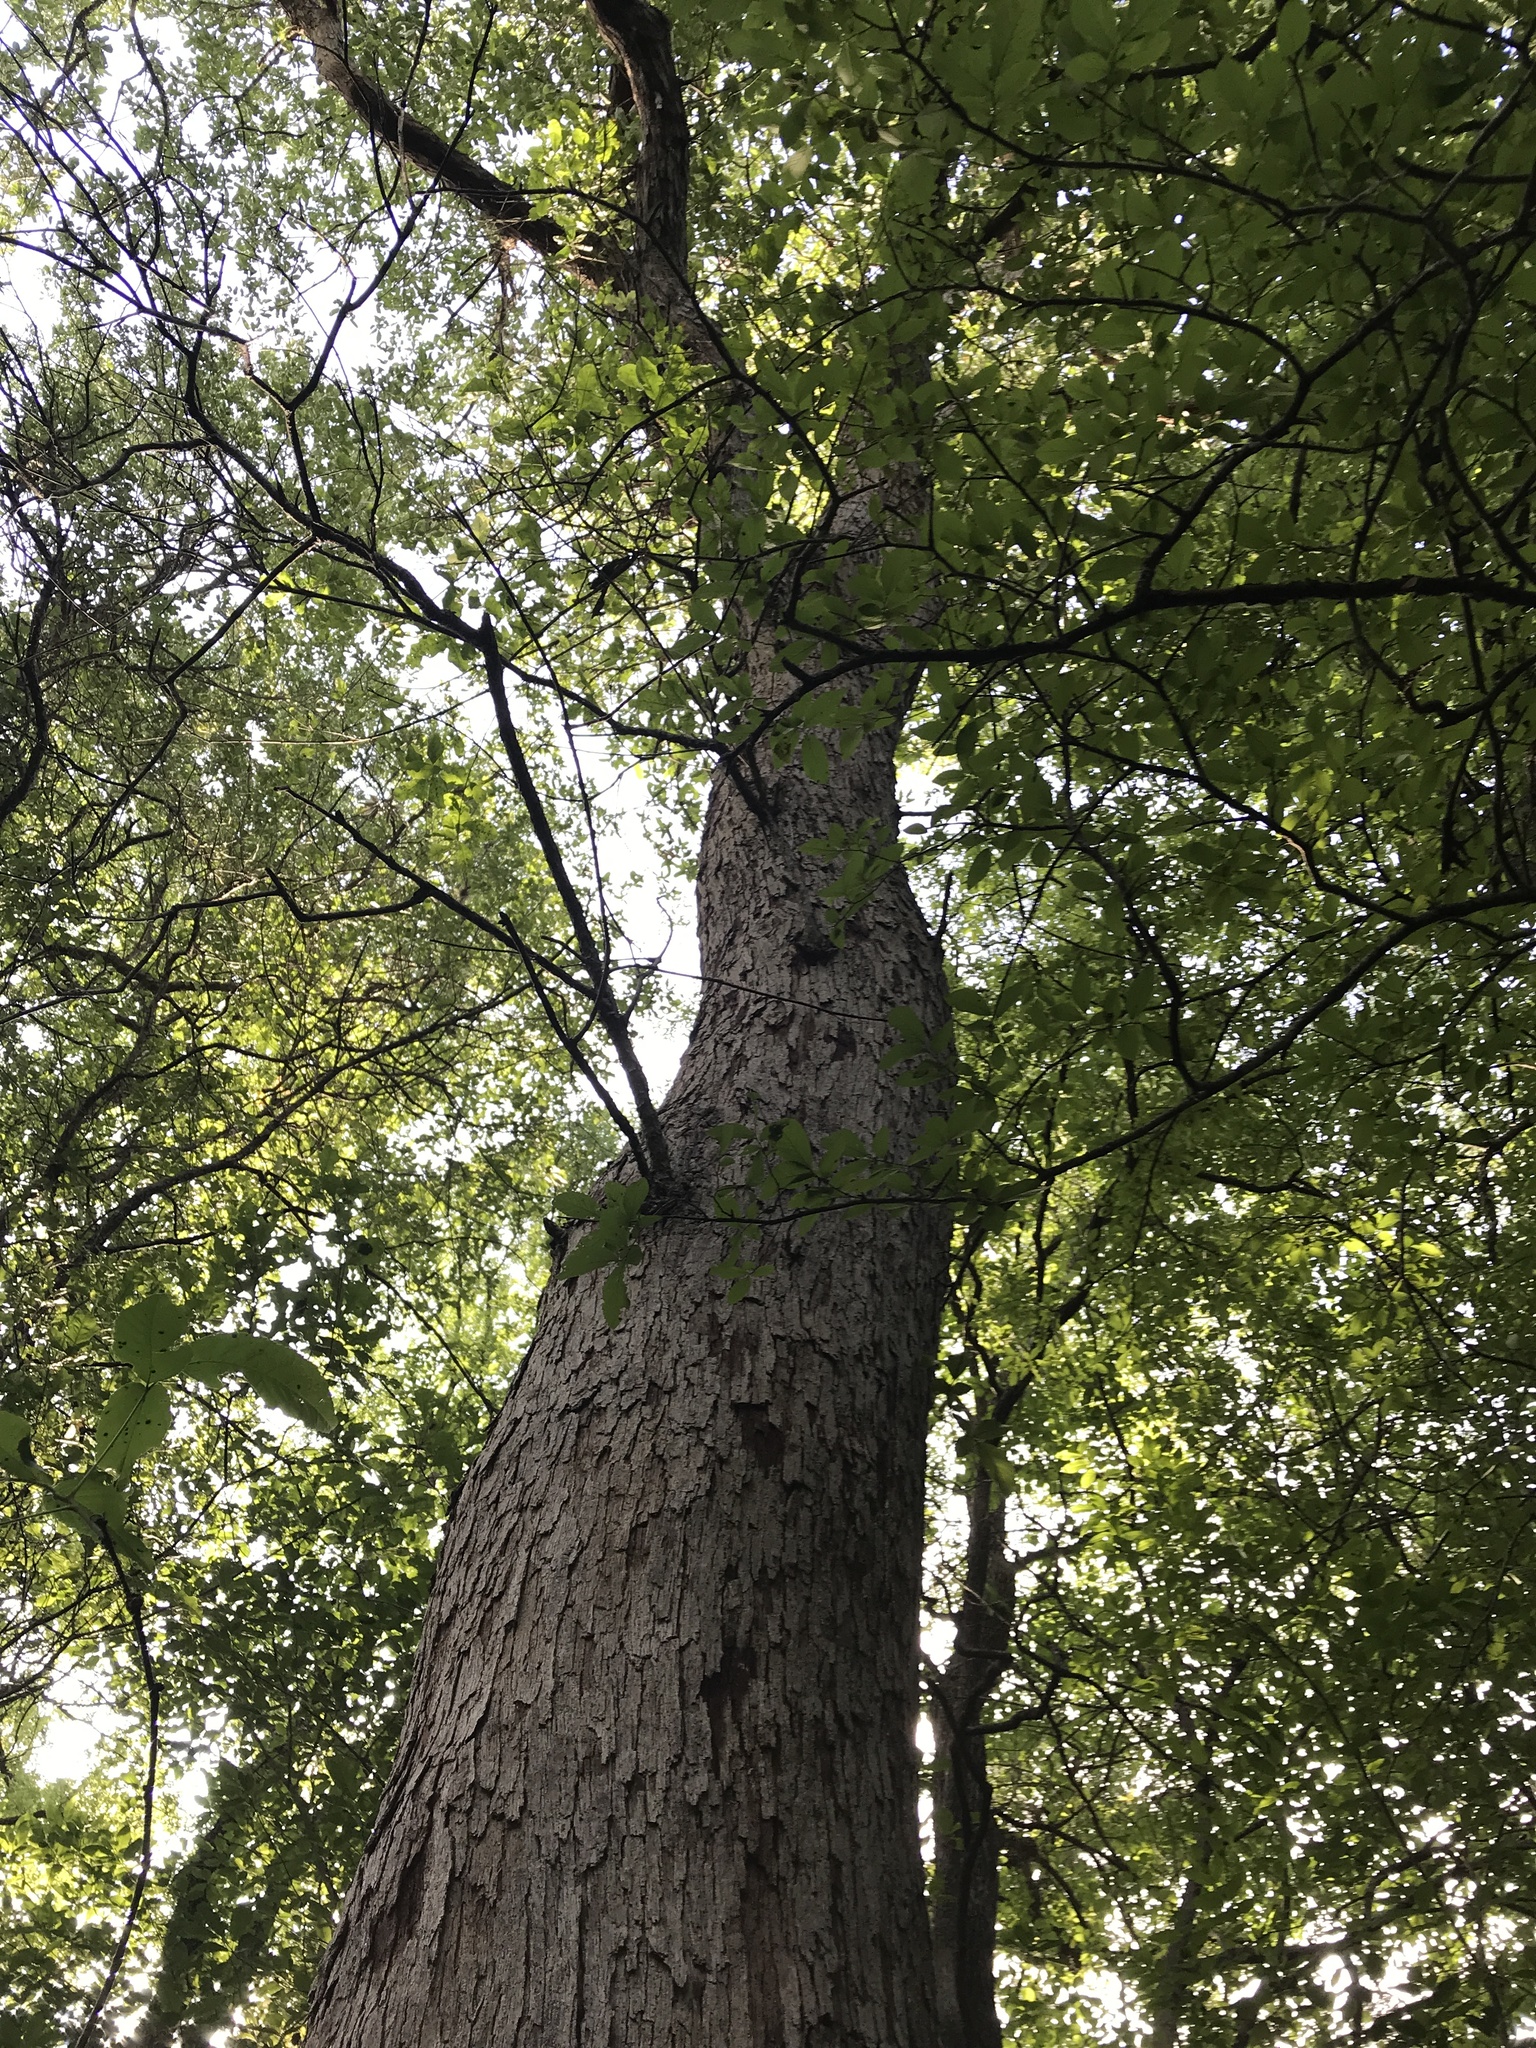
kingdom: Plantae
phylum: Tracheophyta
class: Magnoliopsida
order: Fagales
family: Fagaceae
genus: Quercus
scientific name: Quercus sinuata
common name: Durand oak
